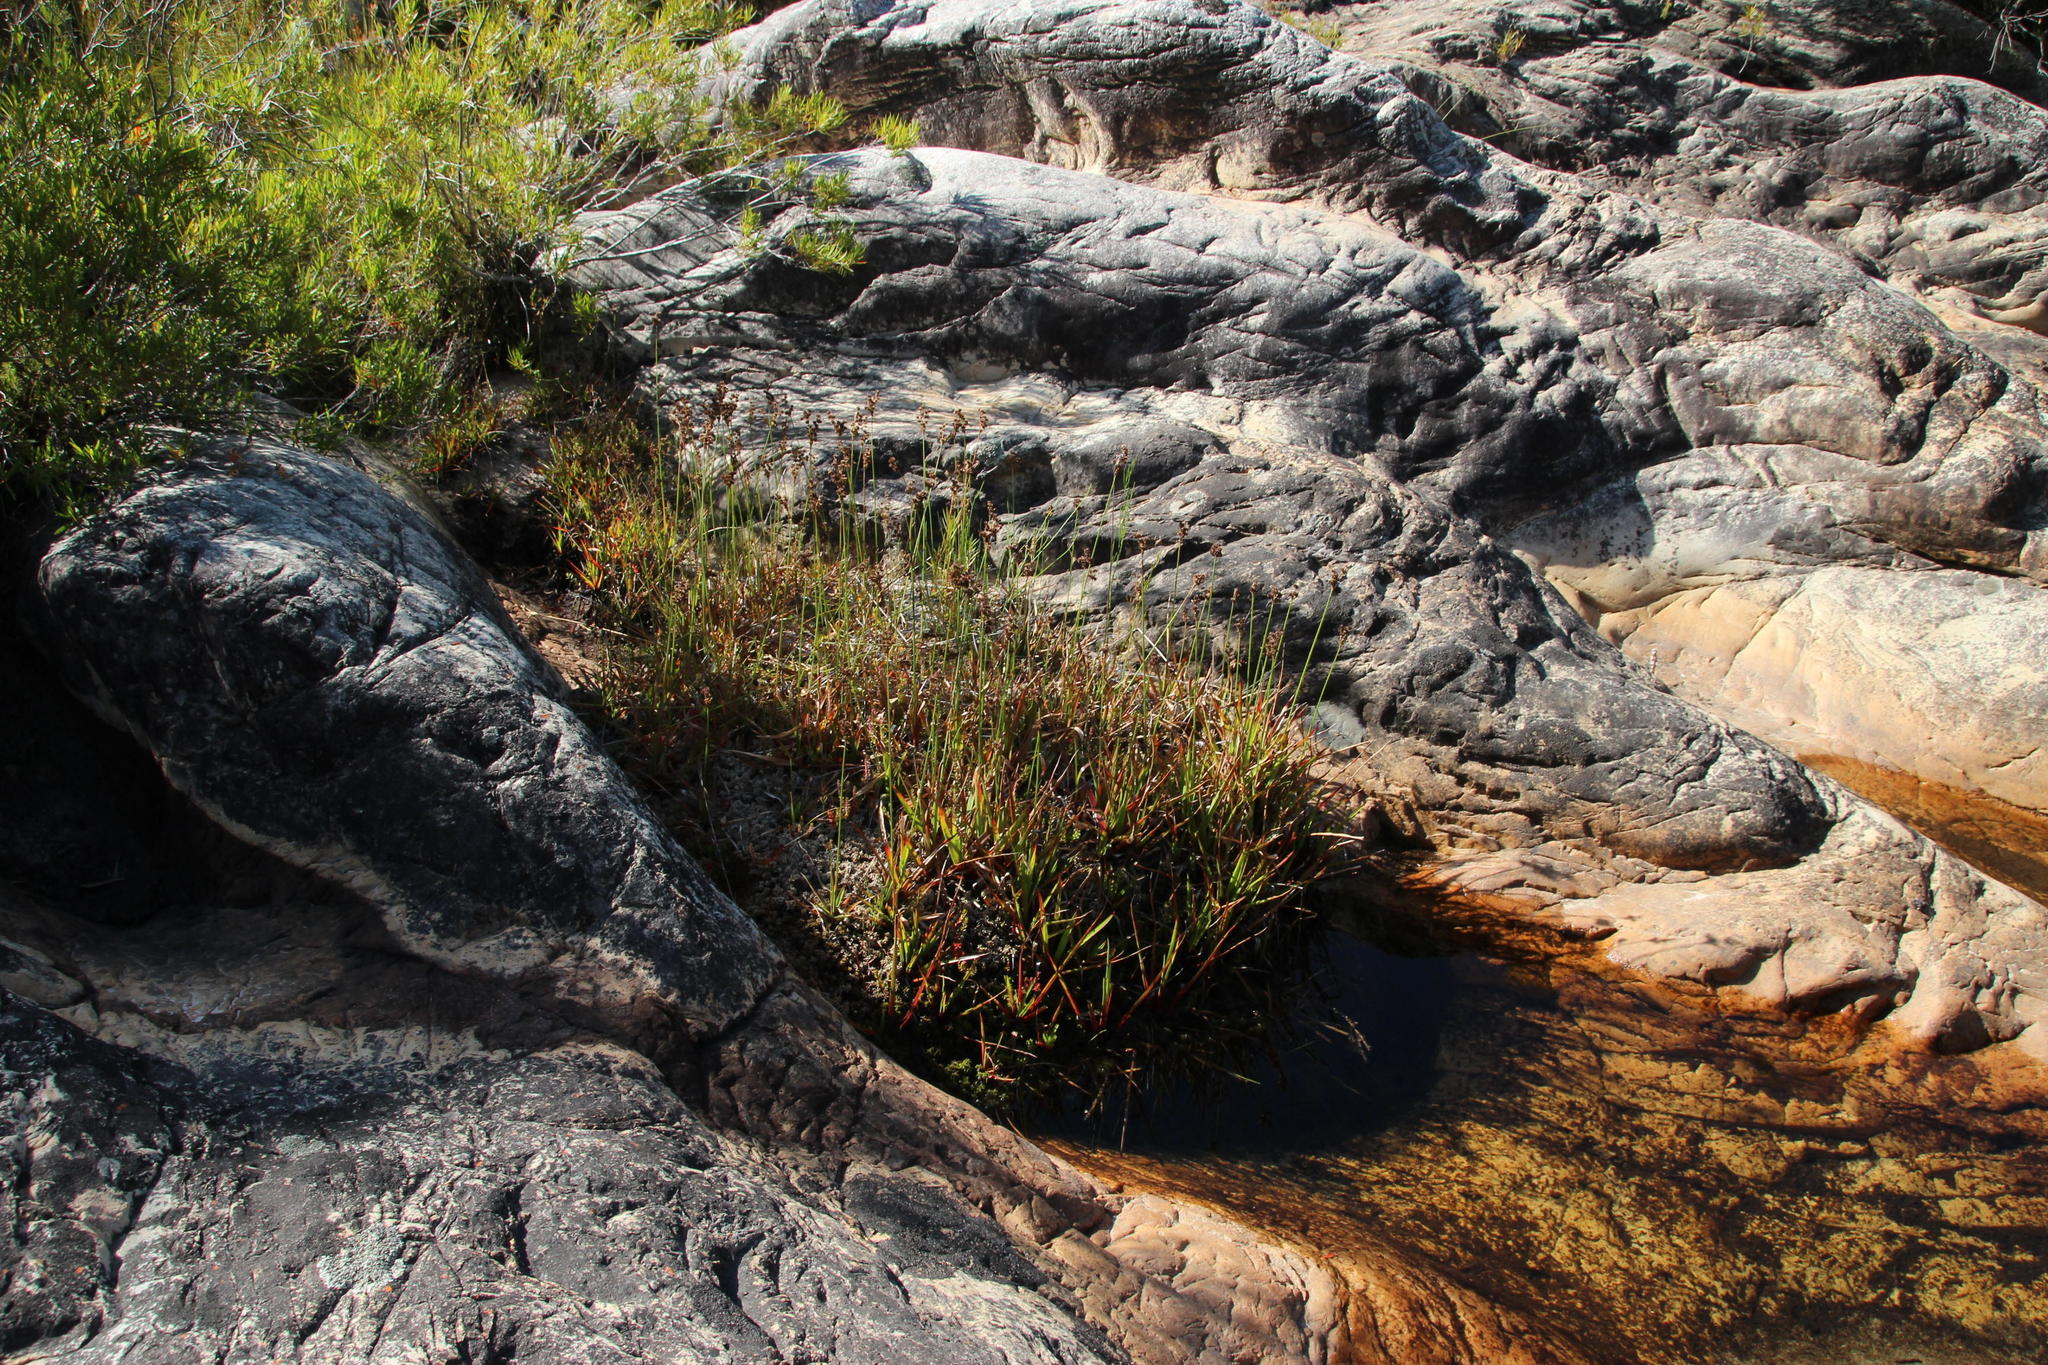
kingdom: Plantae
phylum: Tracheophyta
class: Liliopsida
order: Poales
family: Juncaceae
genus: Juncus
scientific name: Juncus lomatophyllus
